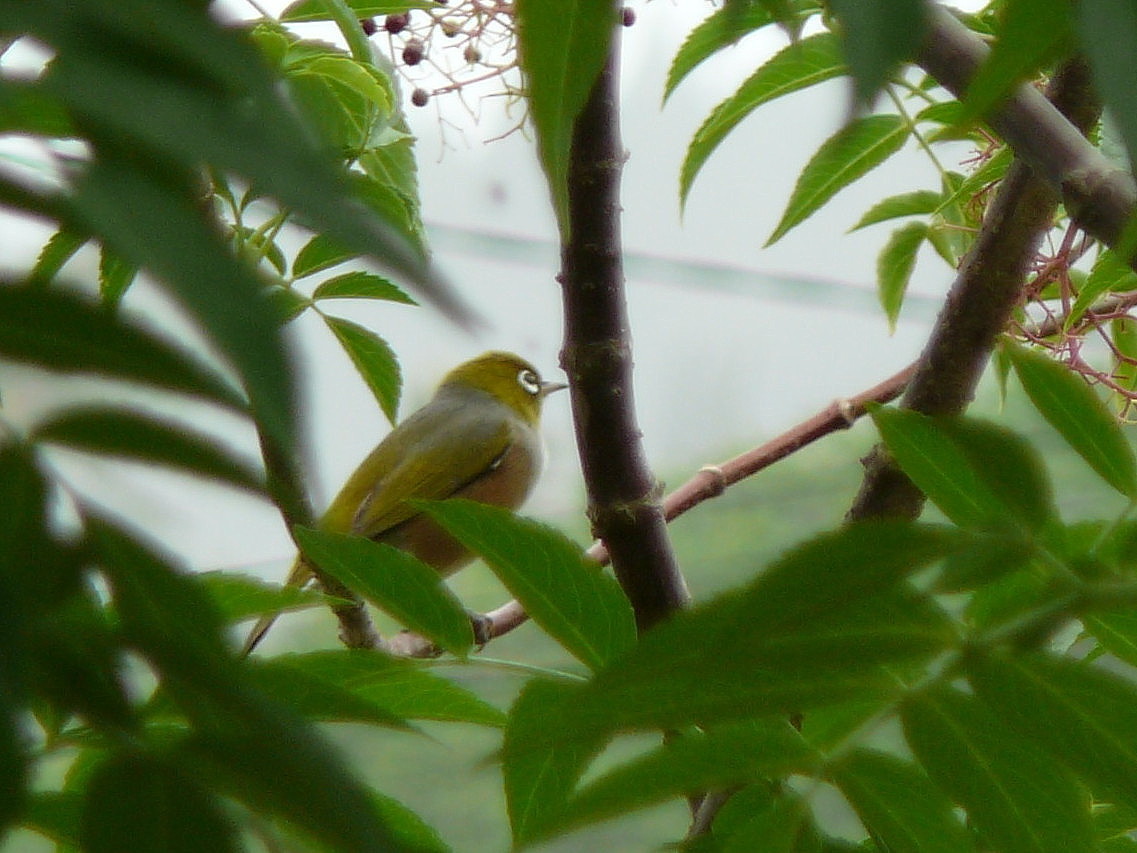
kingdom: Animalia
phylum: Chordata
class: Aves
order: Passeriformes
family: Zosteropidae
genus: Zosterops
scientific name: Zosterops lateralis
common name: Silvereye
